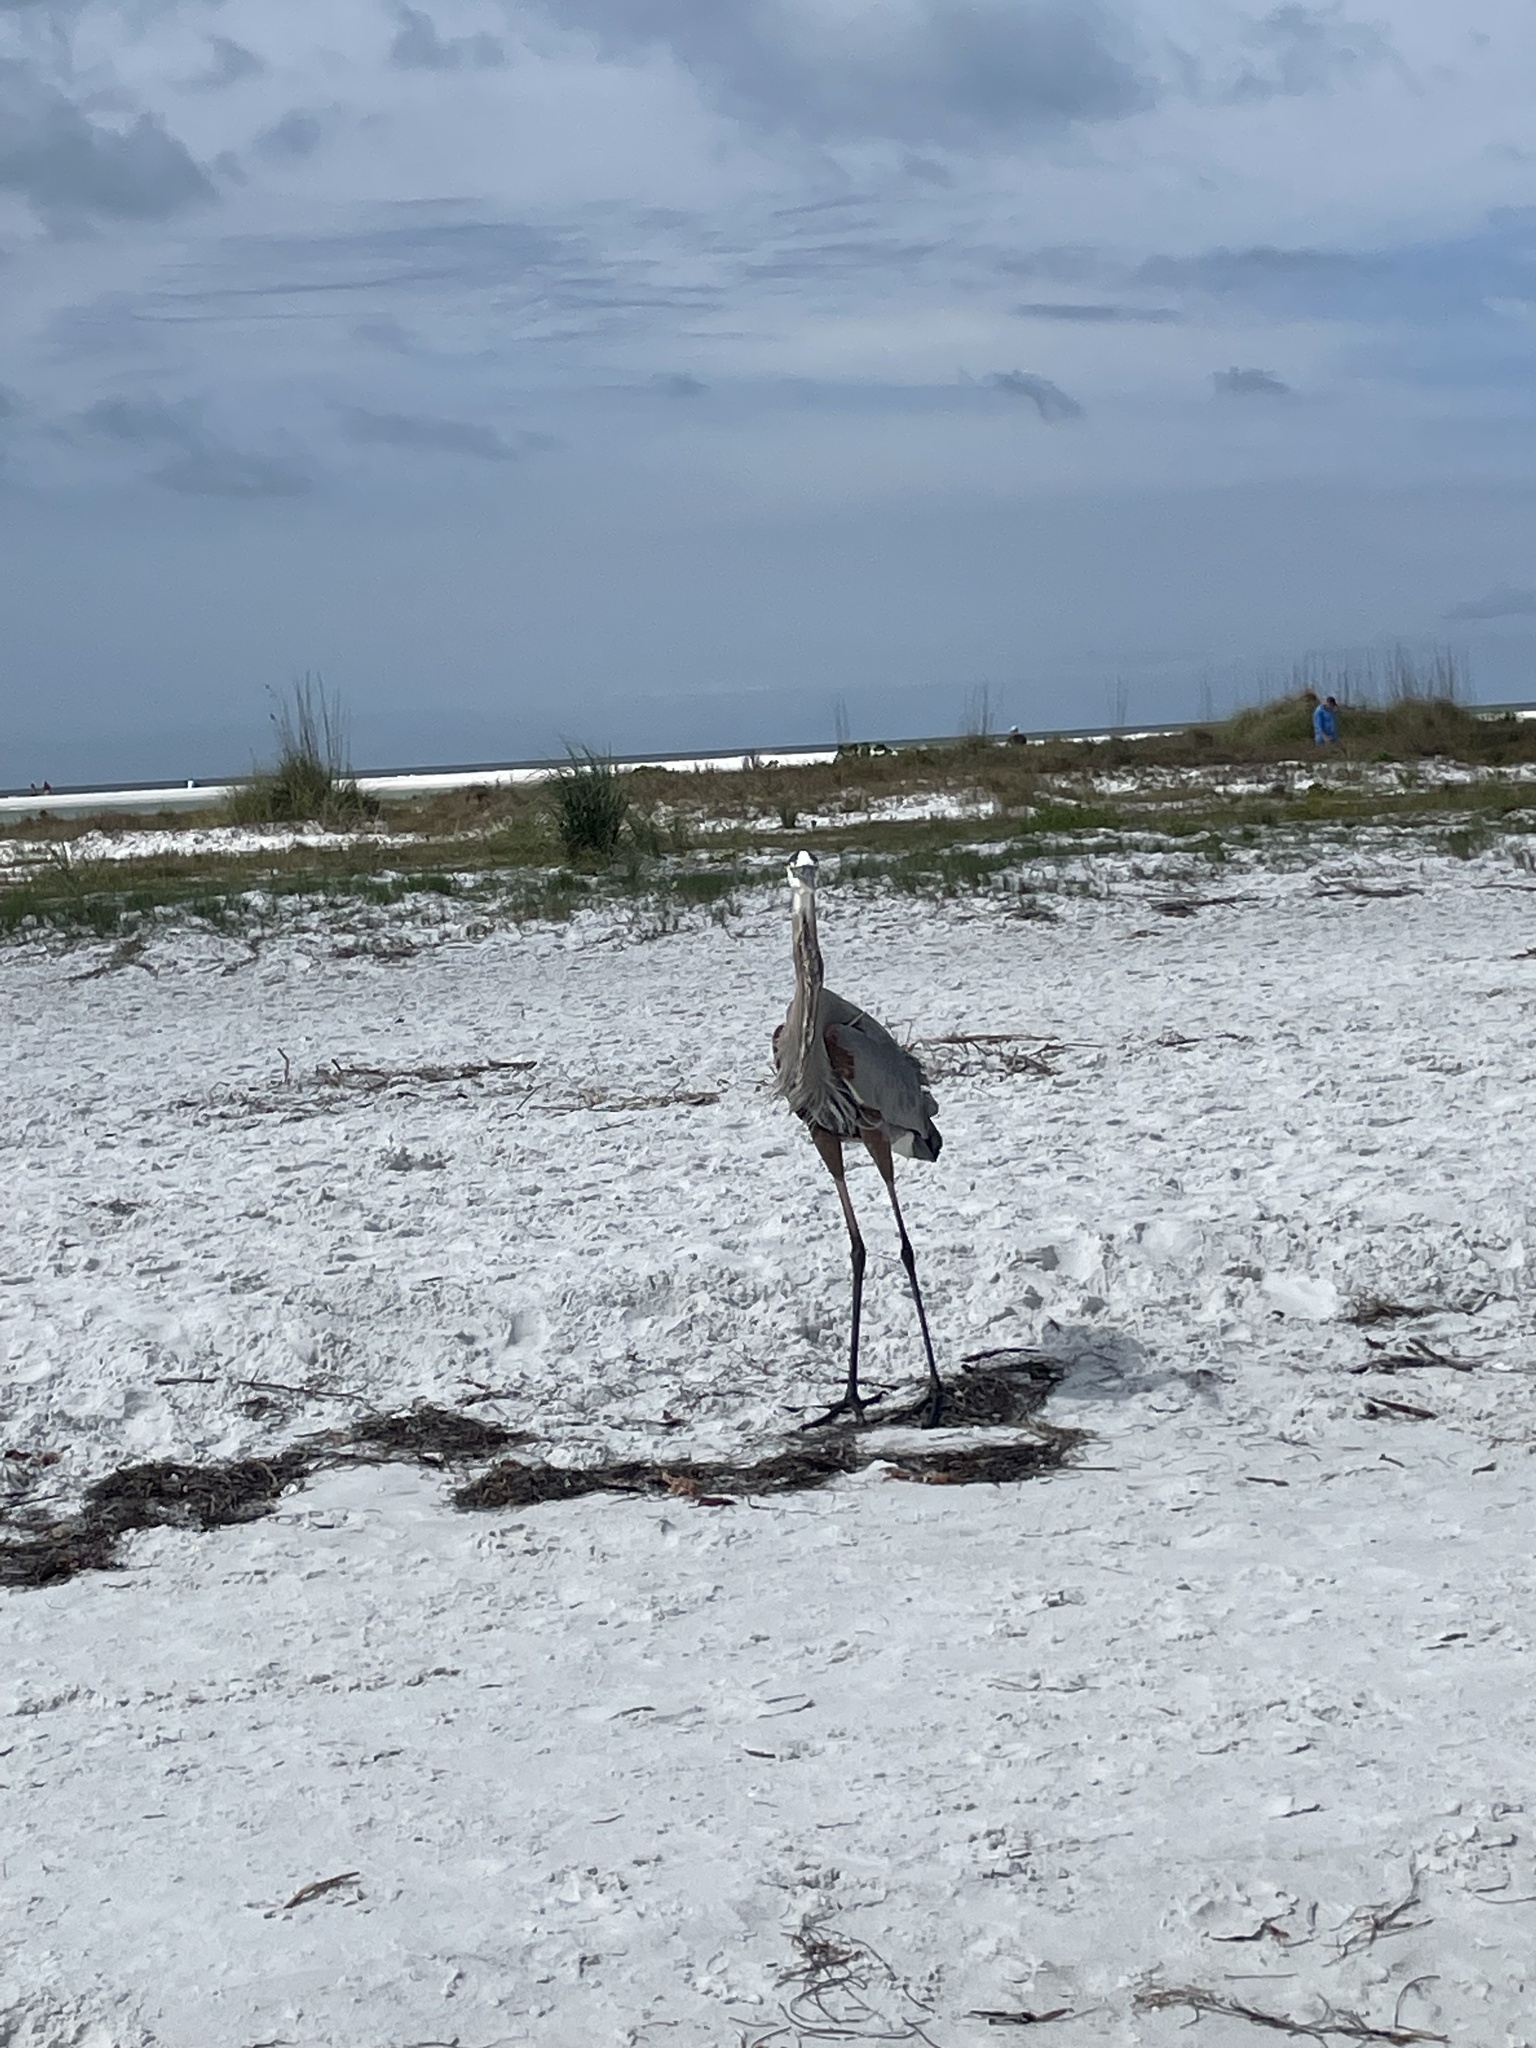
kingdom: Animalia
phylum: Chordata
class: Aves
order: Pelecaniformes
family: Ardeidae
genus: Ardea
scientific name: Ardea herodias
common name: Great blue heron
